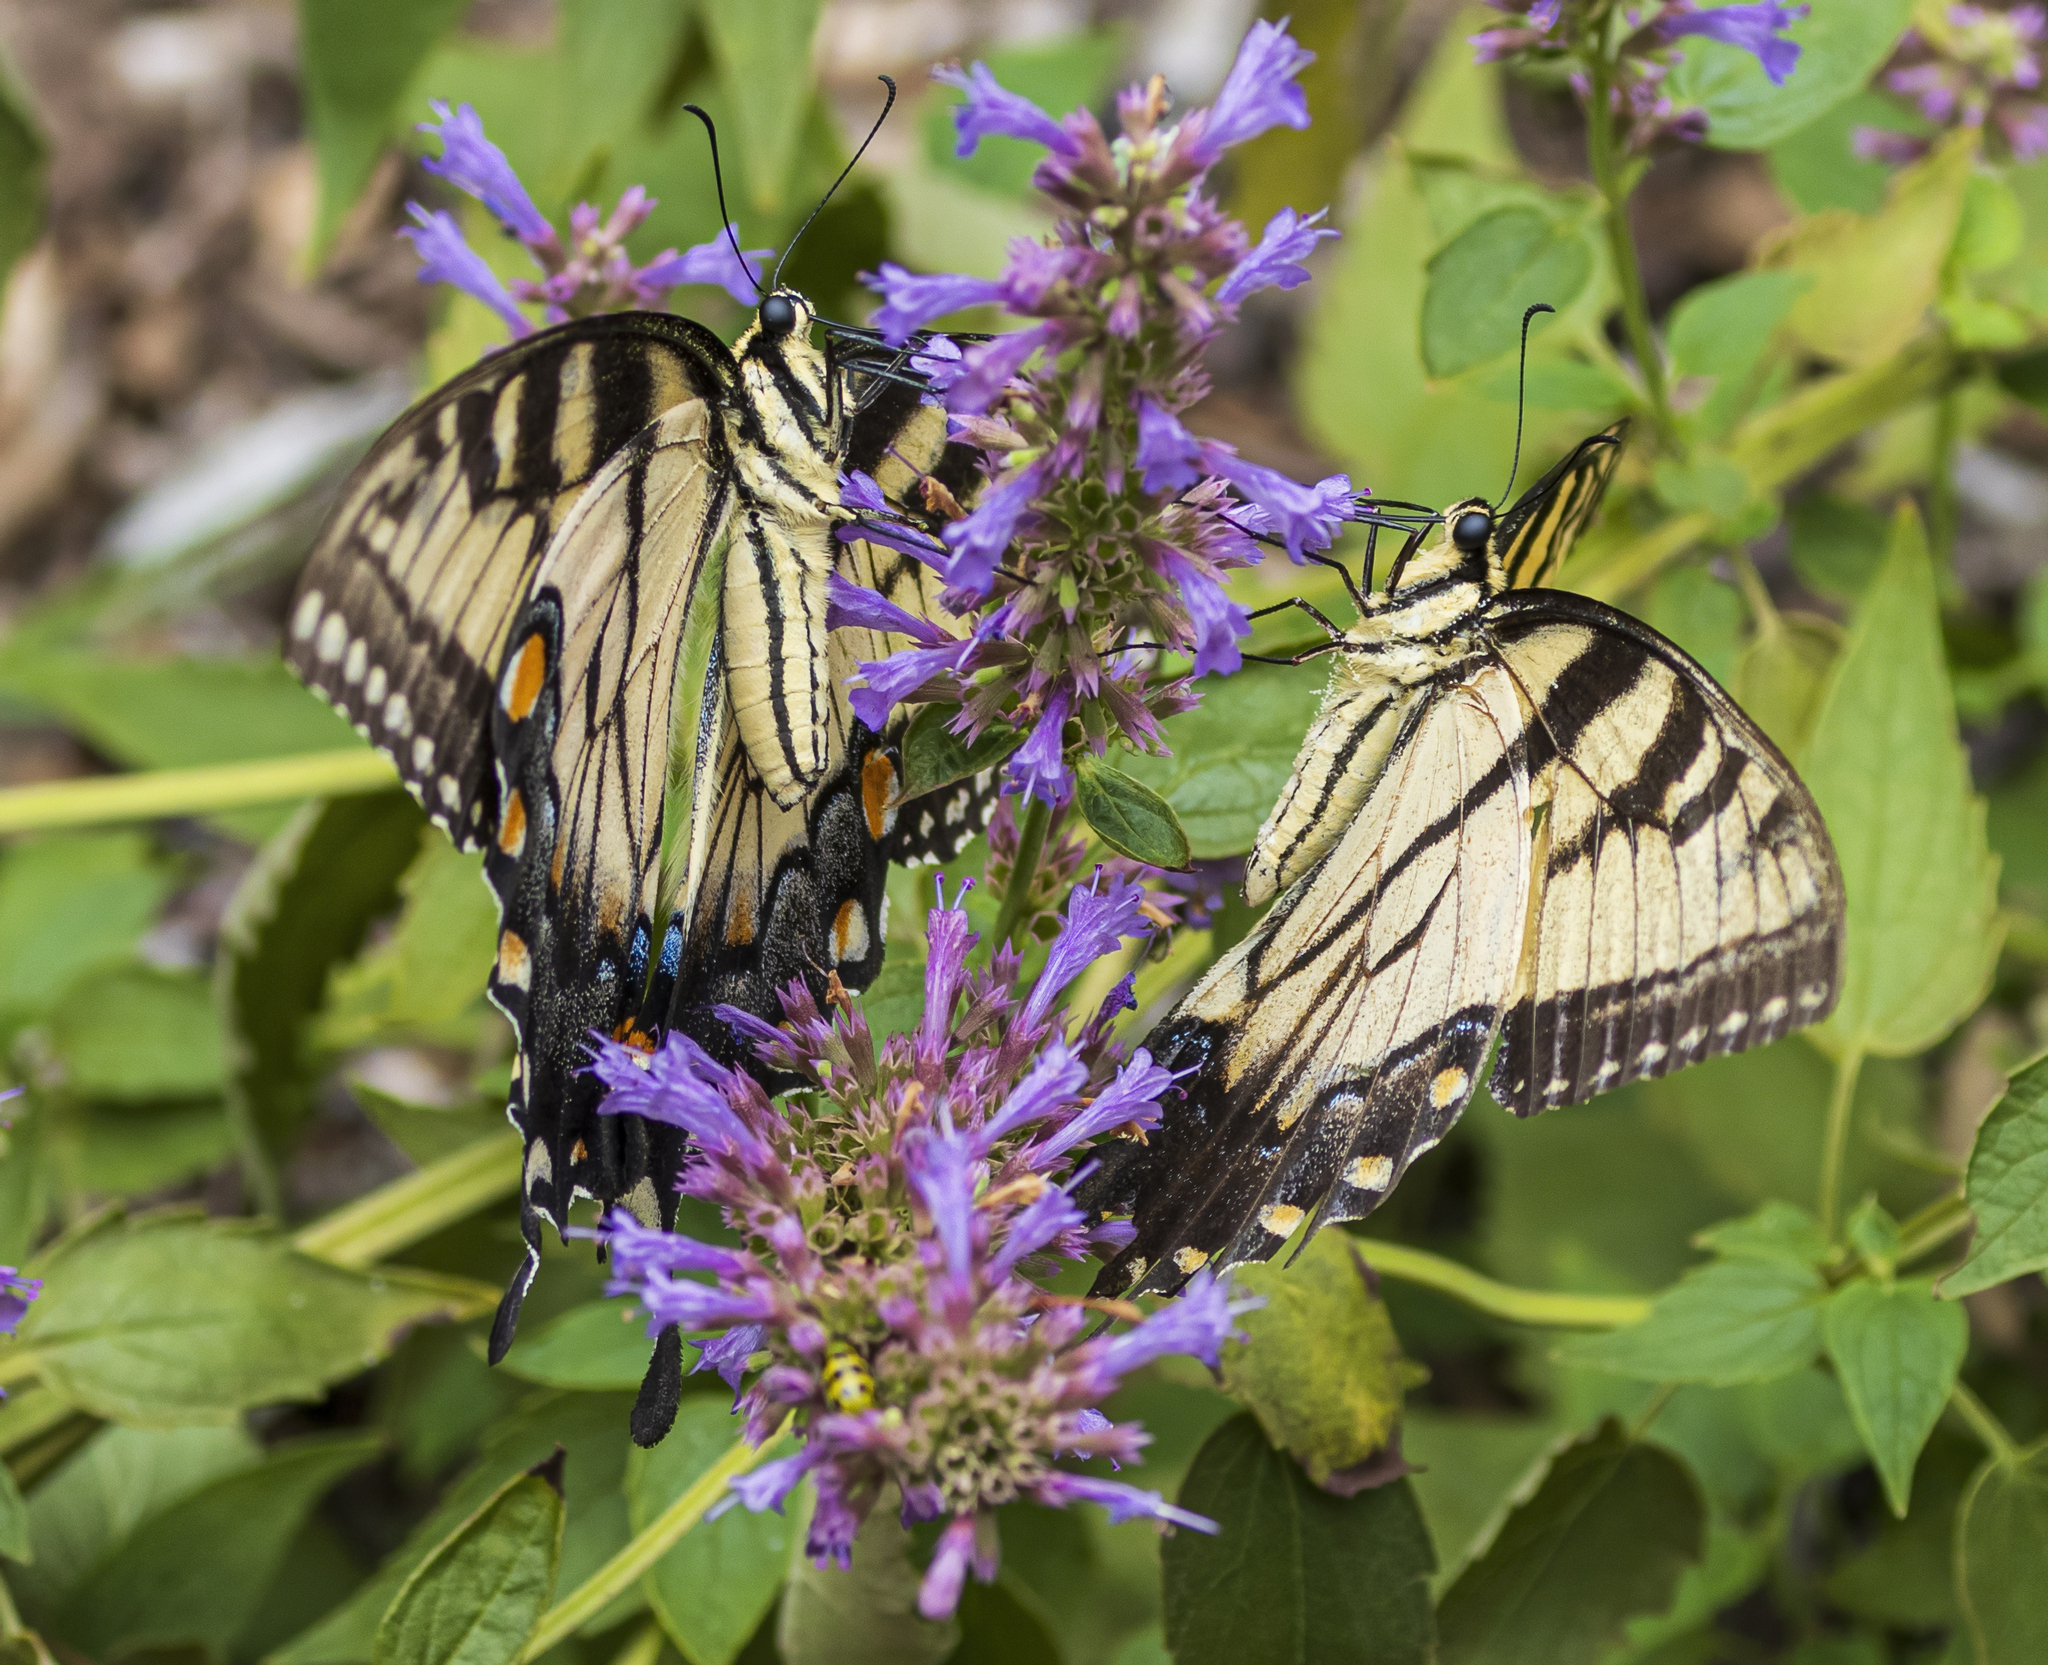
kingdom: Animalia
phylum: Arthropoda
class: Insecta
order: Lepidoptera
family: Papilionidae
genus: Papilio
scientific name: Papilio glaucus
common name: Tiger swallowtail
